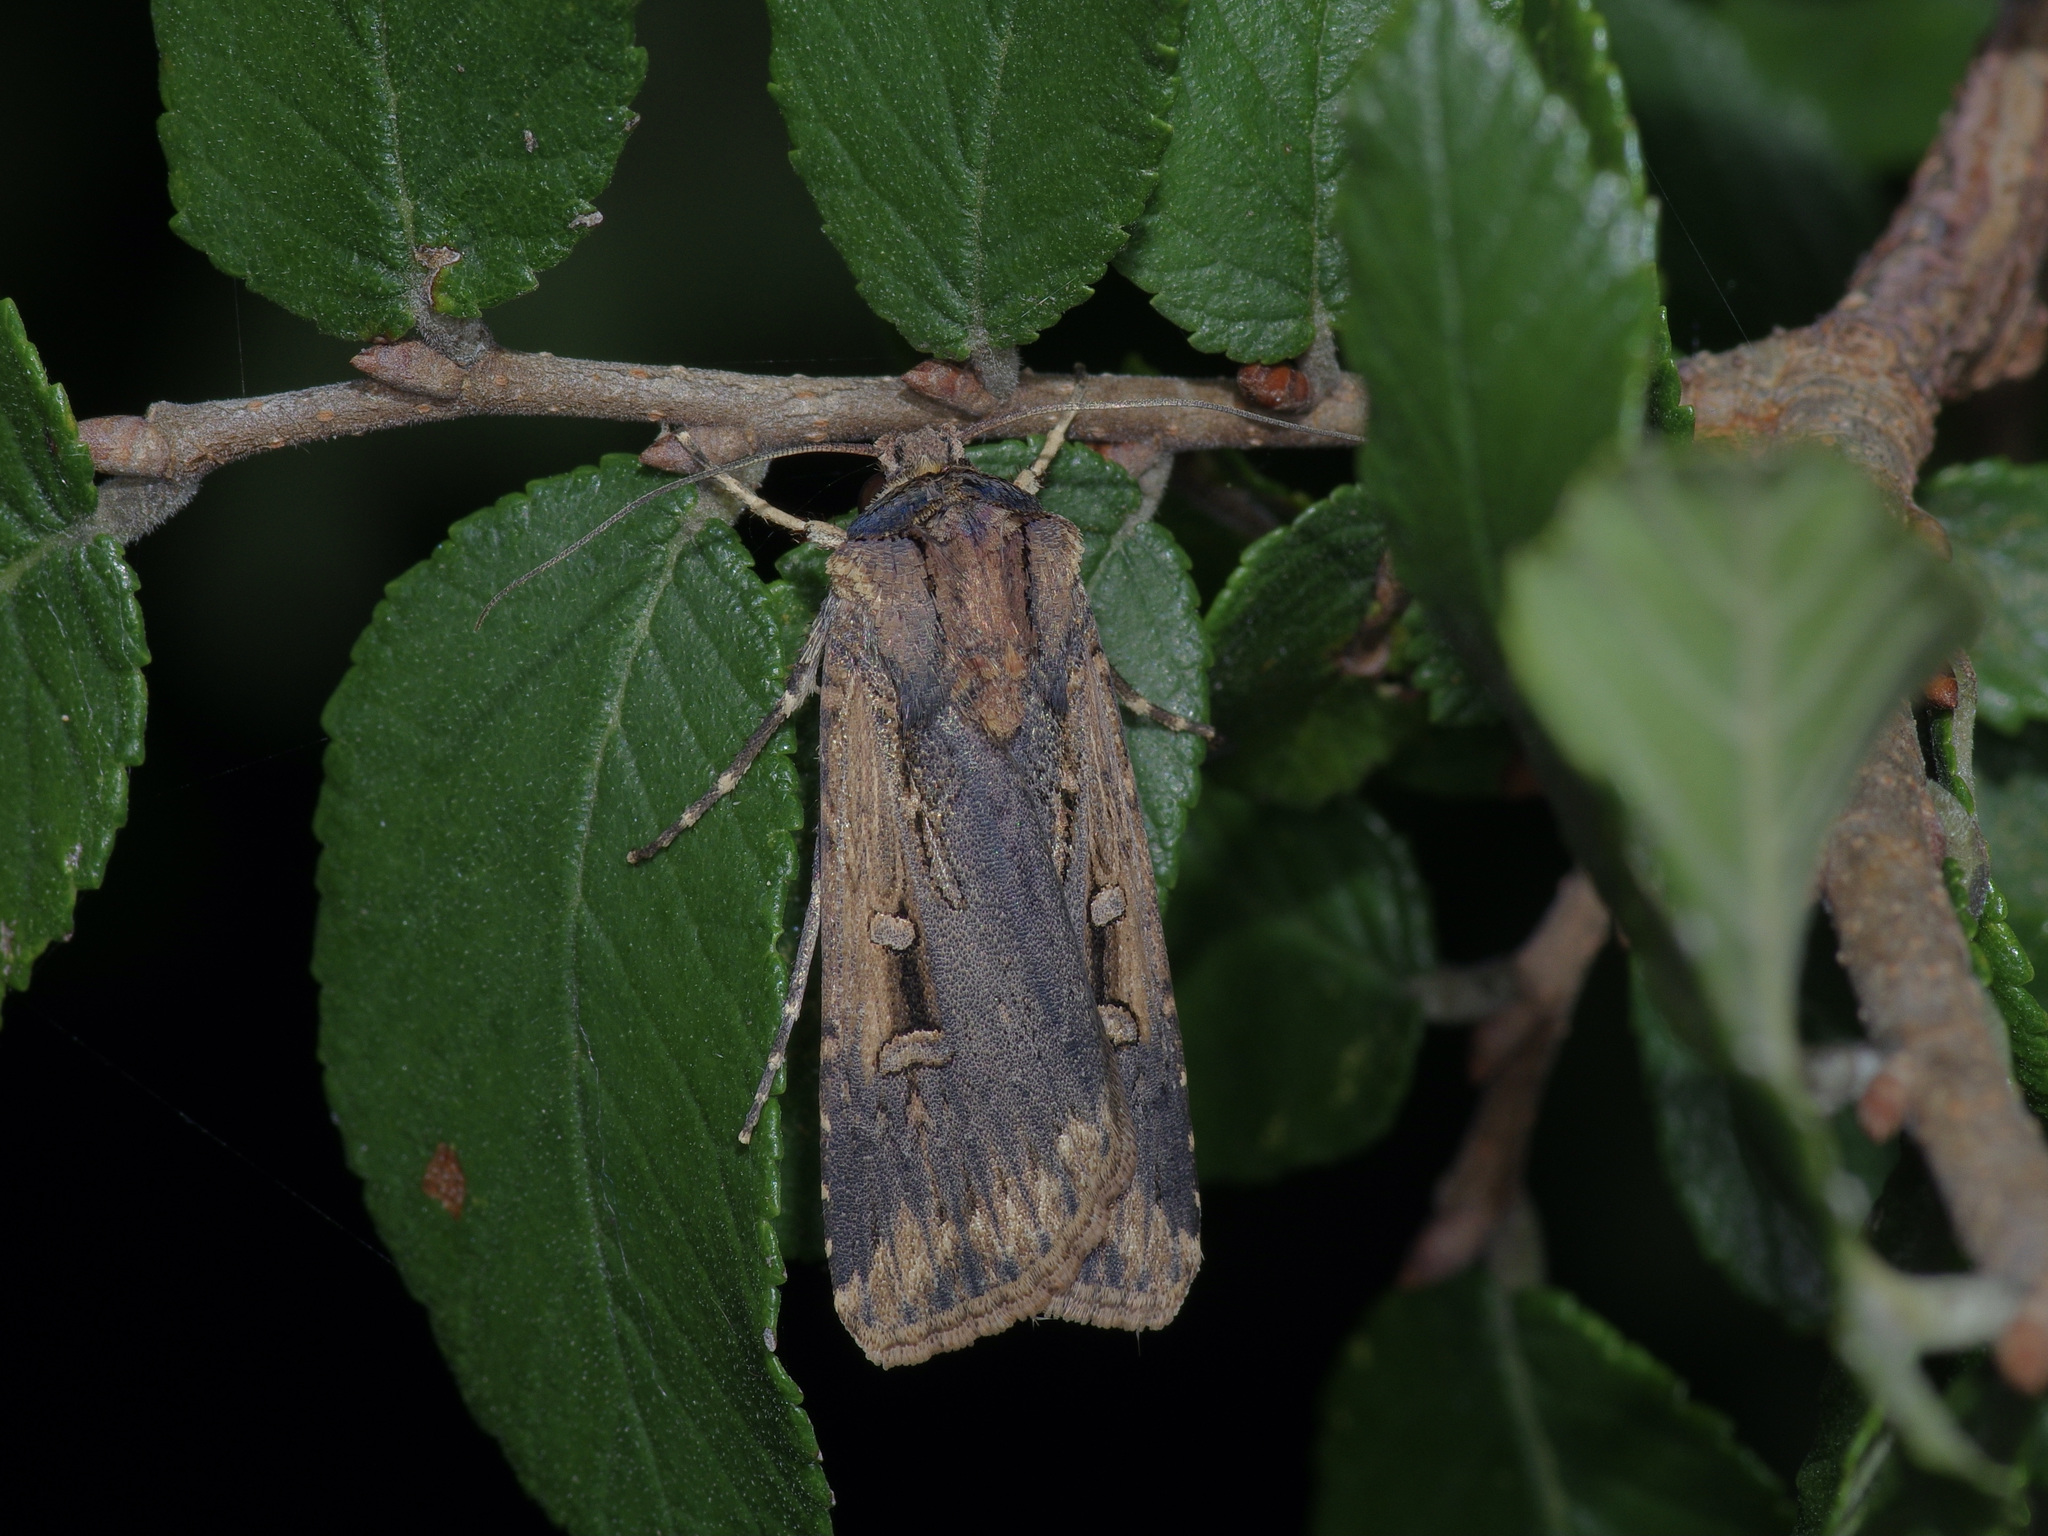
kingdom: Animalia
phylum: Arthropoda
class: Insecta
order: Lepidoptera
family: Noctuidae
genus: Feltia
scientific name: Feltia subterranea
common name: Granulate cutworm
